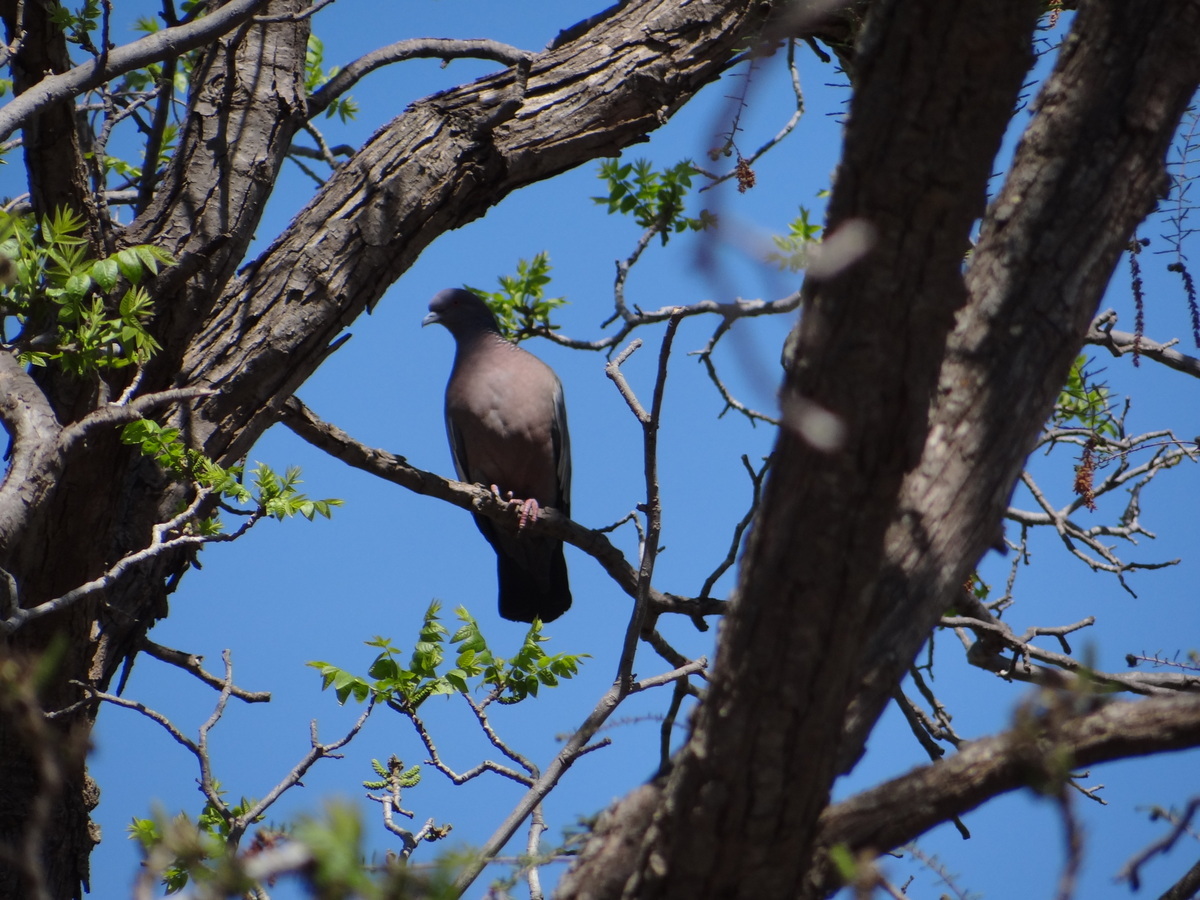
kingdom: Animalia
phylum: Chordata
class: Aves
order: Columbiformes
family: Columbidae
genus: Patagioenas
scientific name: Patagioenas picazuro
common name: Picazuro pigeon
